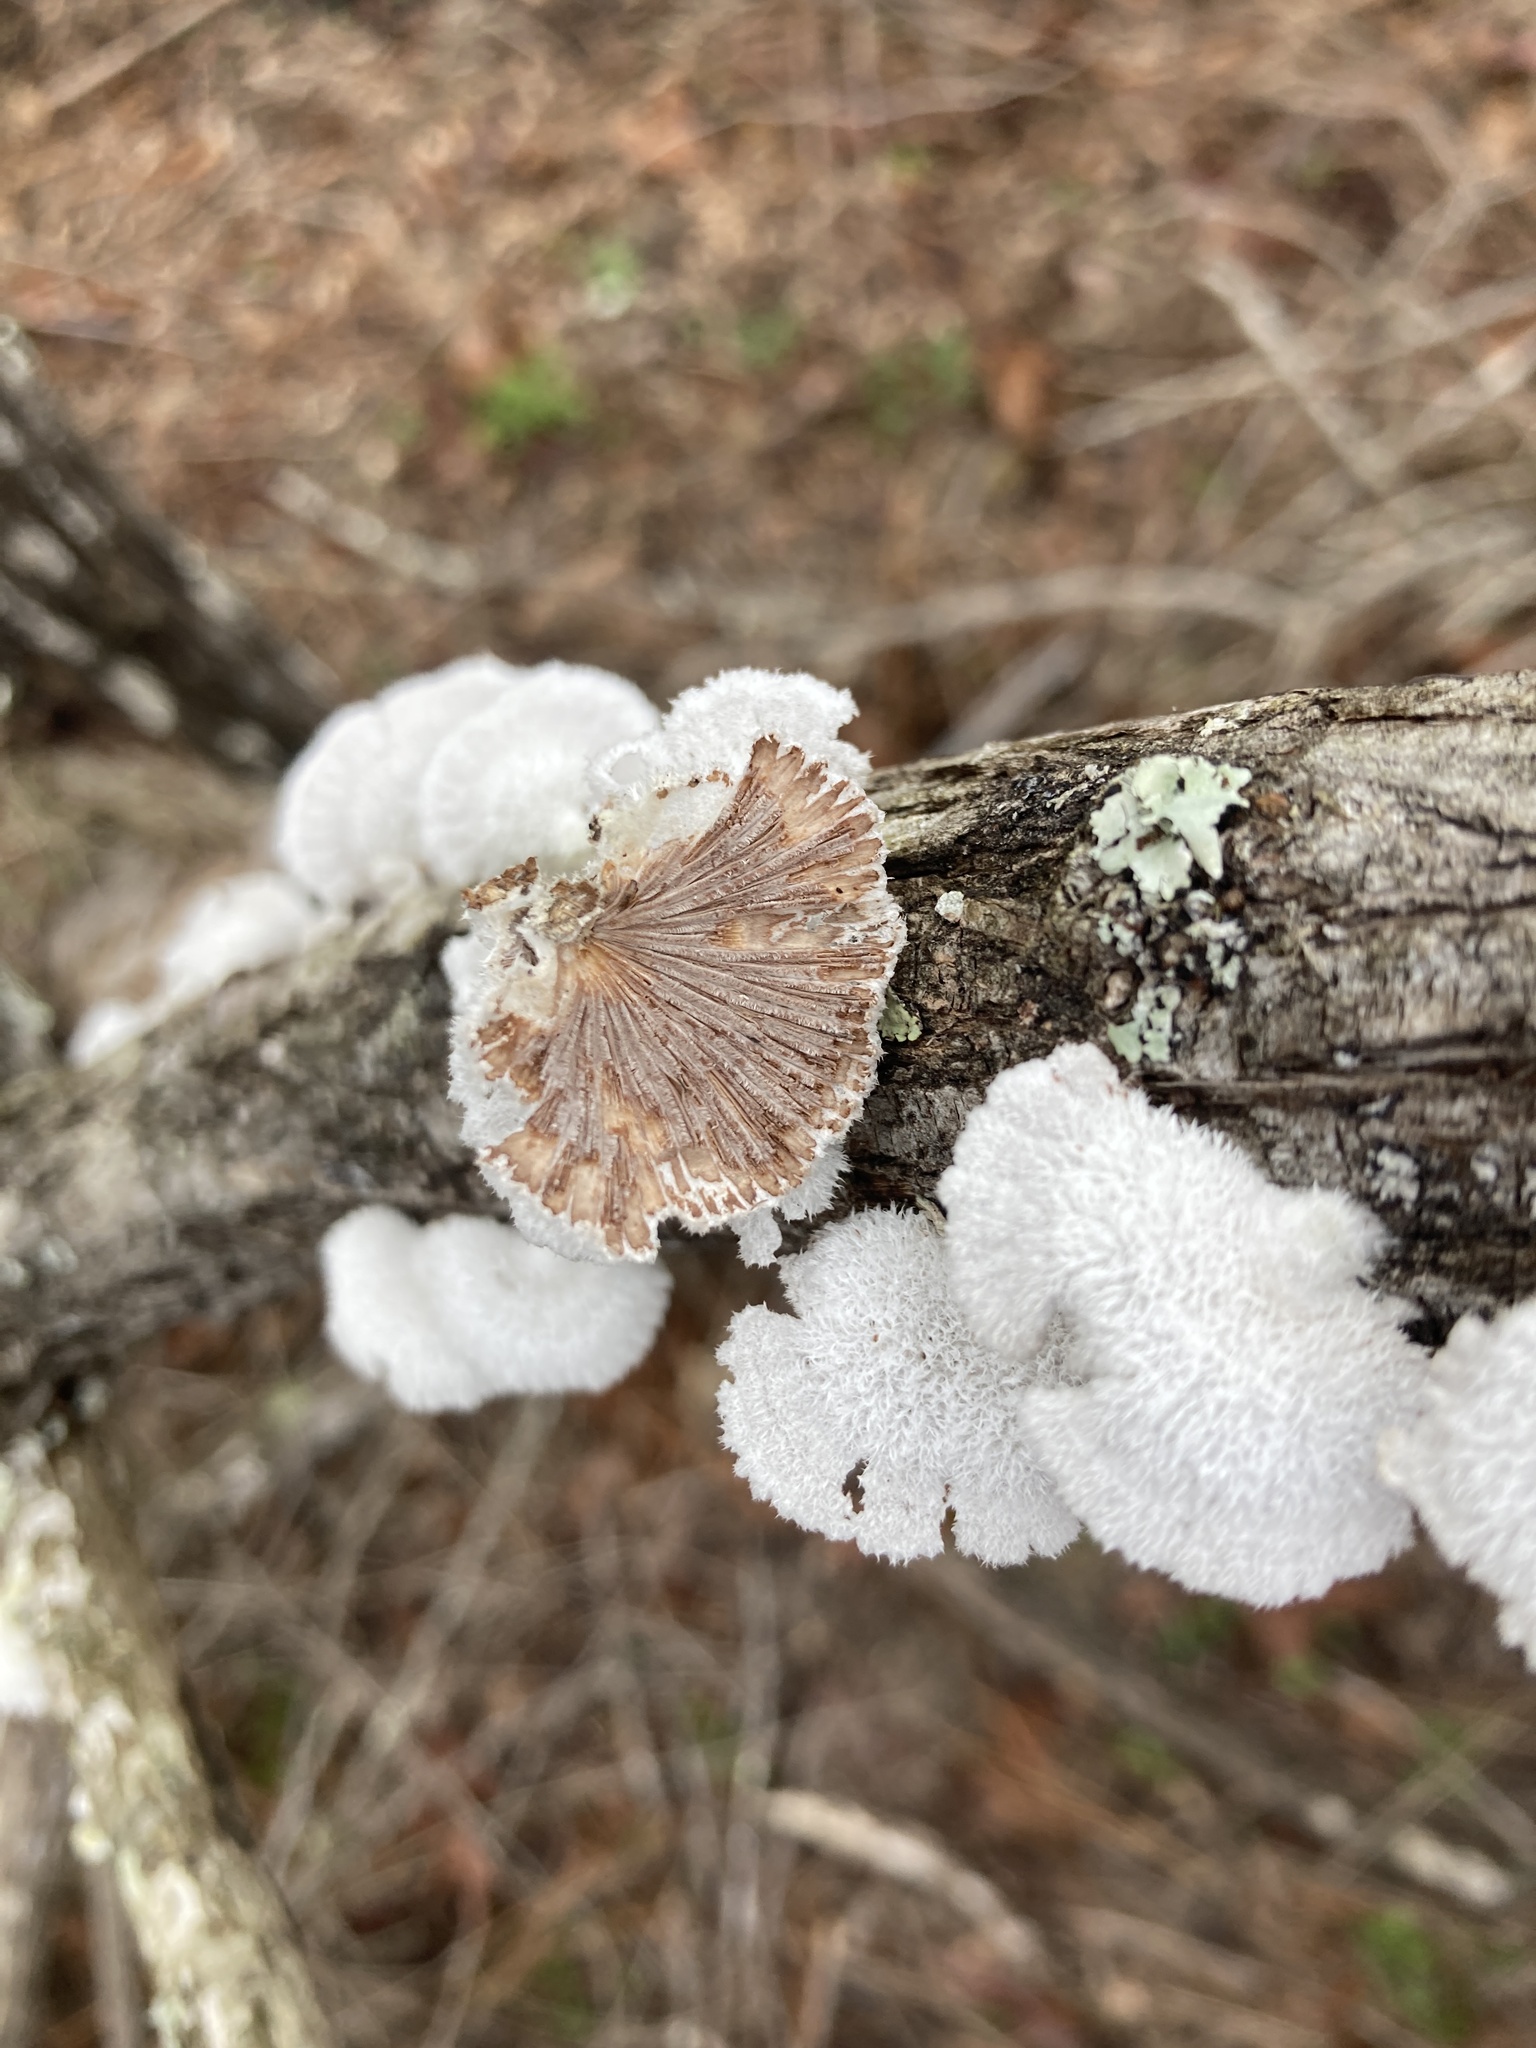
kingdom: Fungi
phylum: Basidiomycota
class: Agaricomycetes
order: Agaricales
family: Schizophyllaceae
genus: Schizophyllum
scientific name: Schizophyllum commune
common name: Common porecrust
